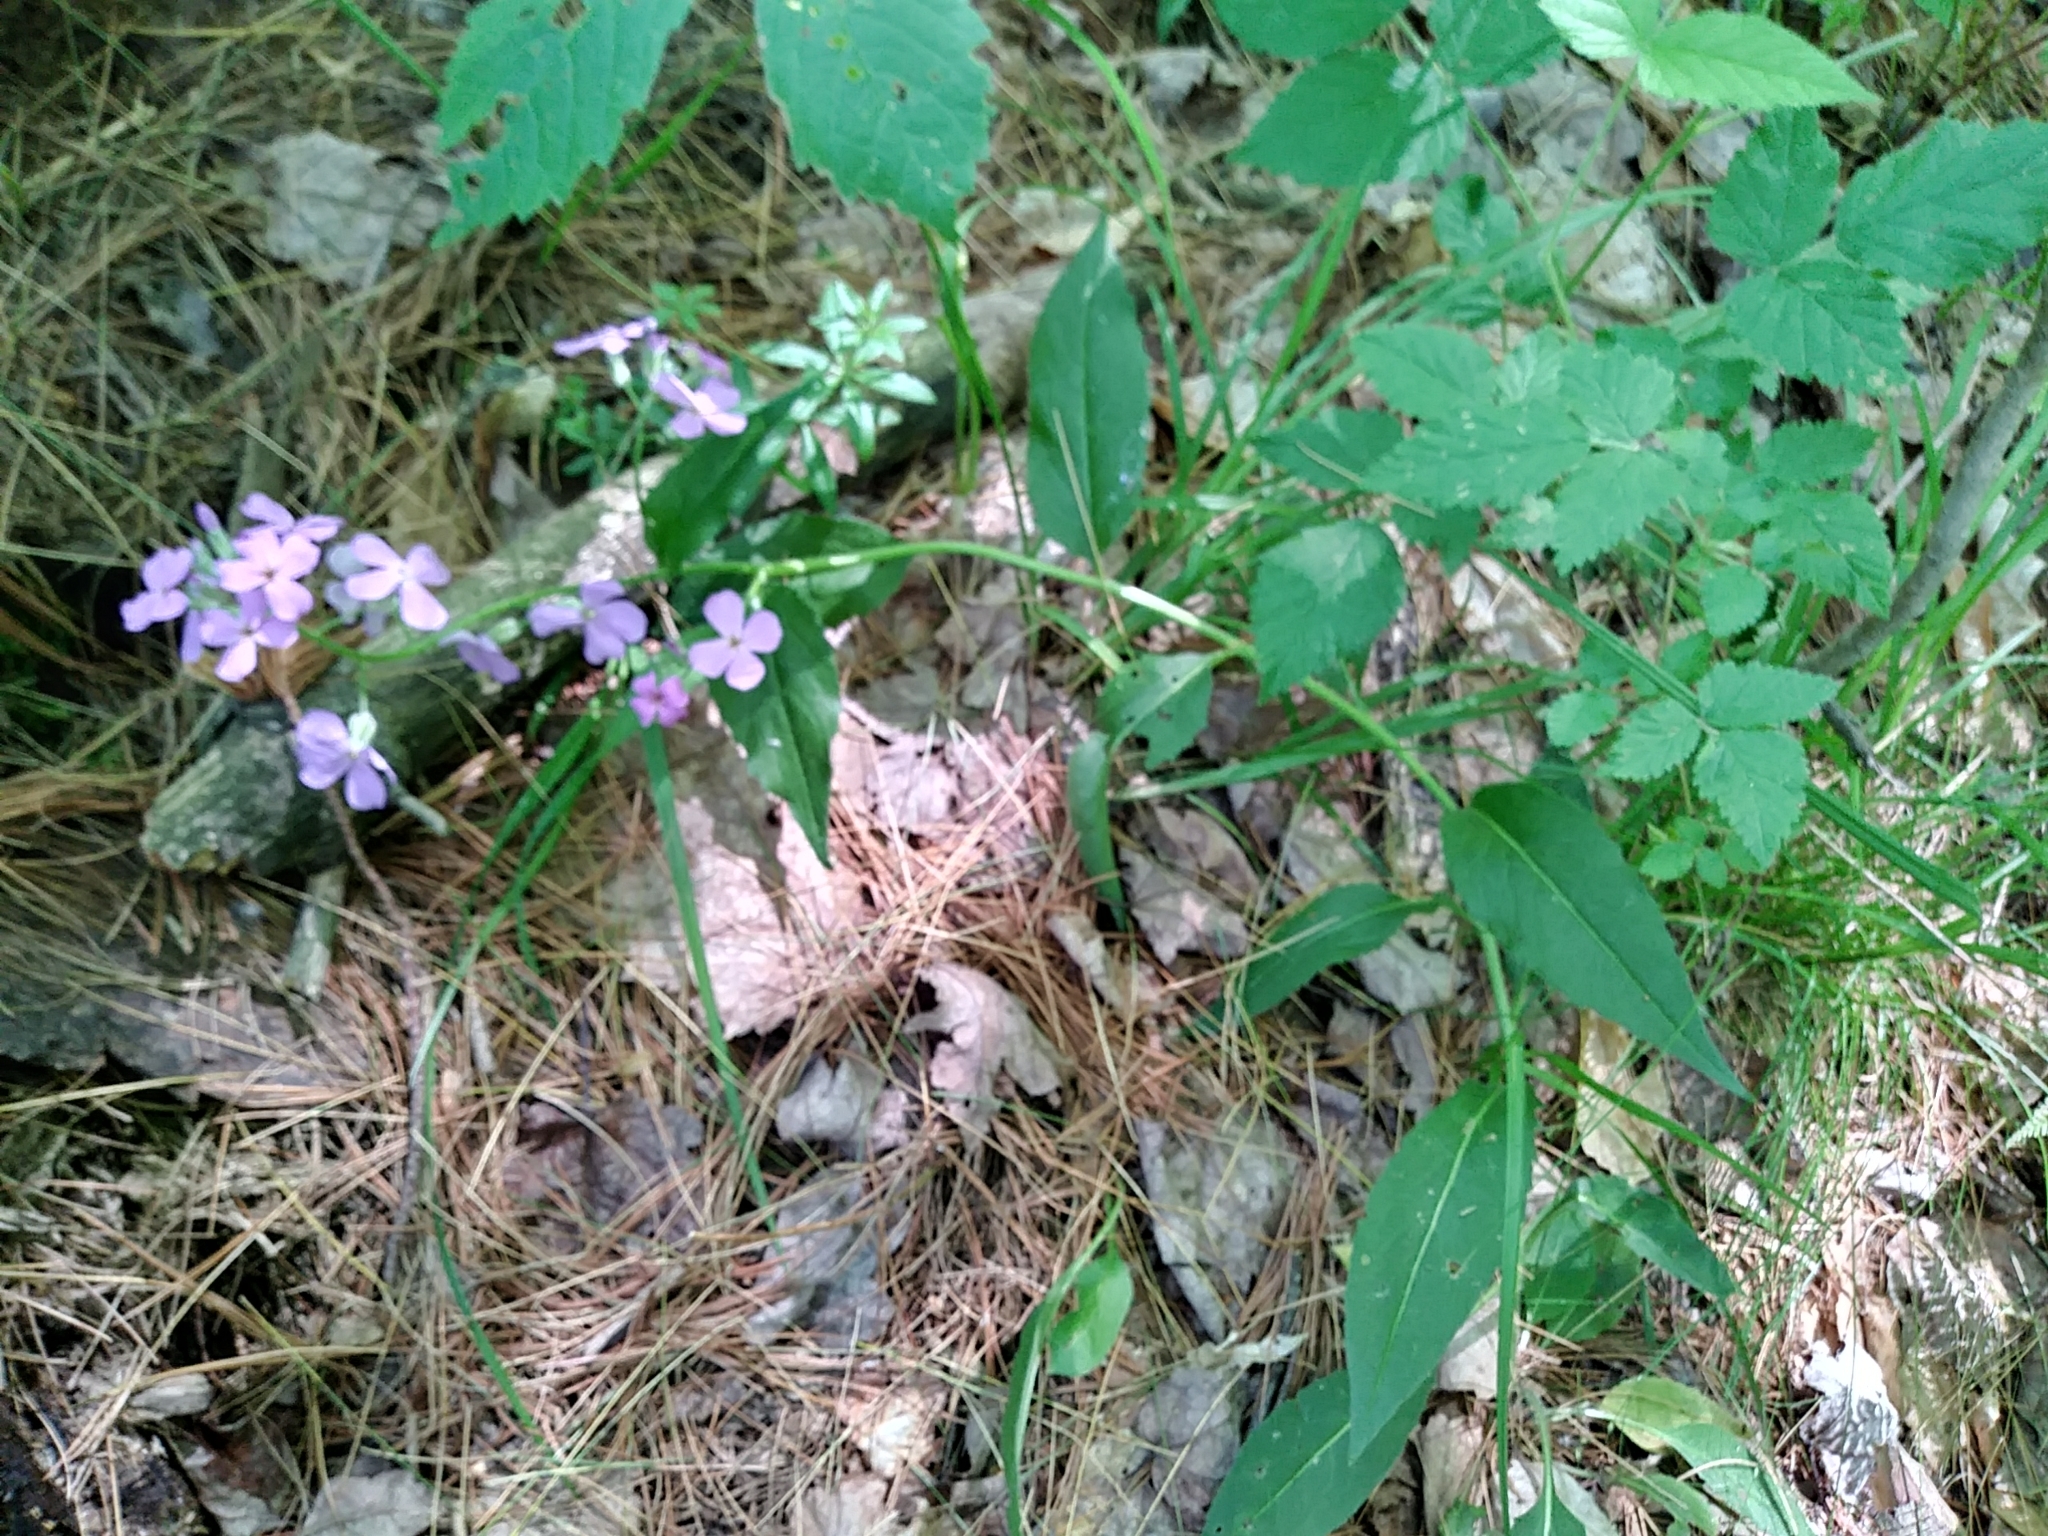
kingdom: Plantae
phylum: Tracheophyta
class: Magnoliopsida
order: Brassicales
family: Brassicaceae
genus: Hesperis
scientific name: Hesperis matronalis
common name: Dame's-violet
